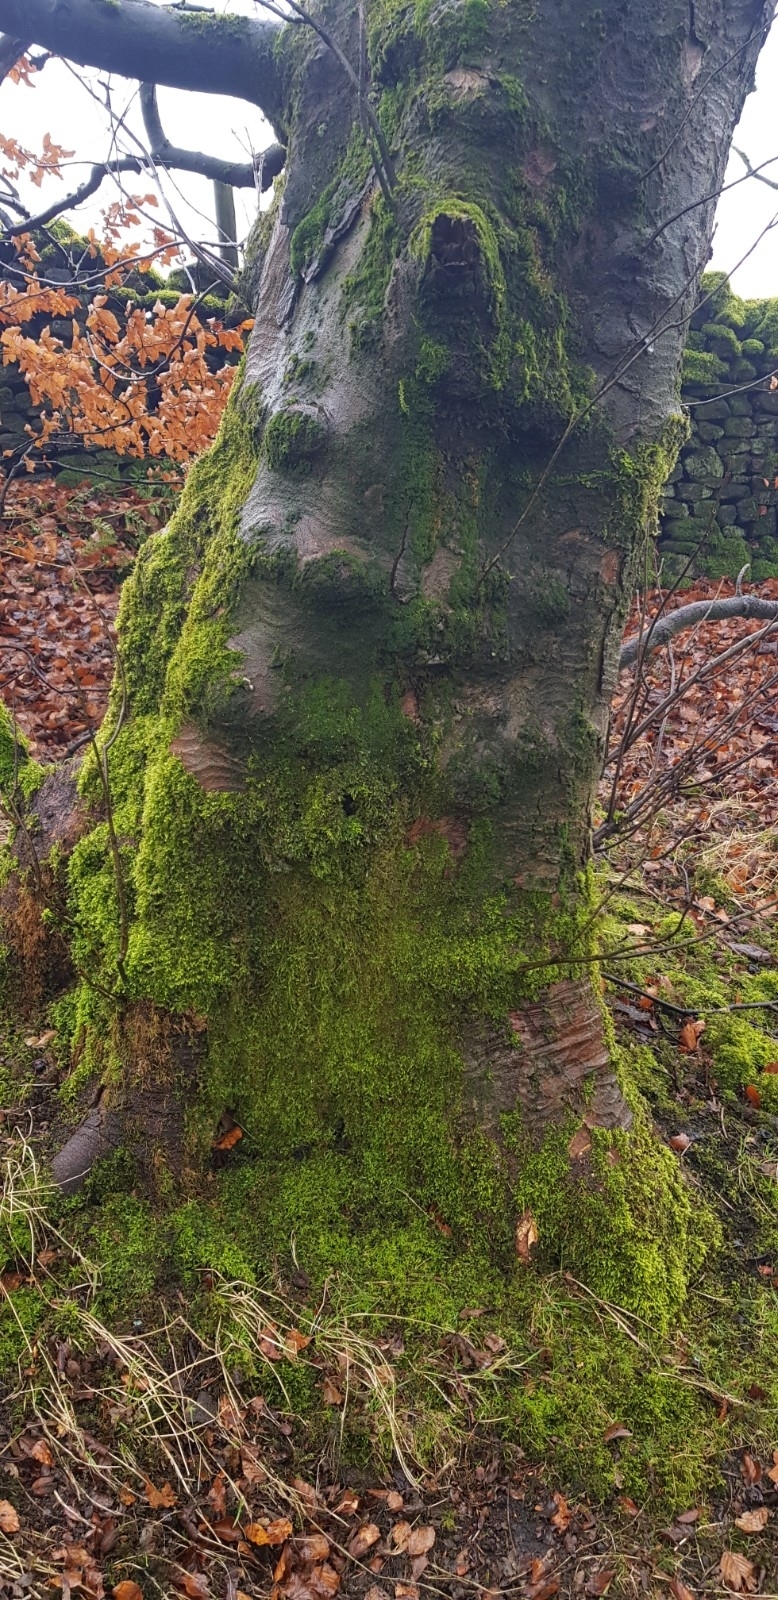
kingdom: Plantae
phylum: Bryophyta
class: Bryopsida
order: Hypnales
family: Brachytheciaceae
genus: Kindbergia
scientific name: Kindbergia praelonga
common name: Slender beaked moss
